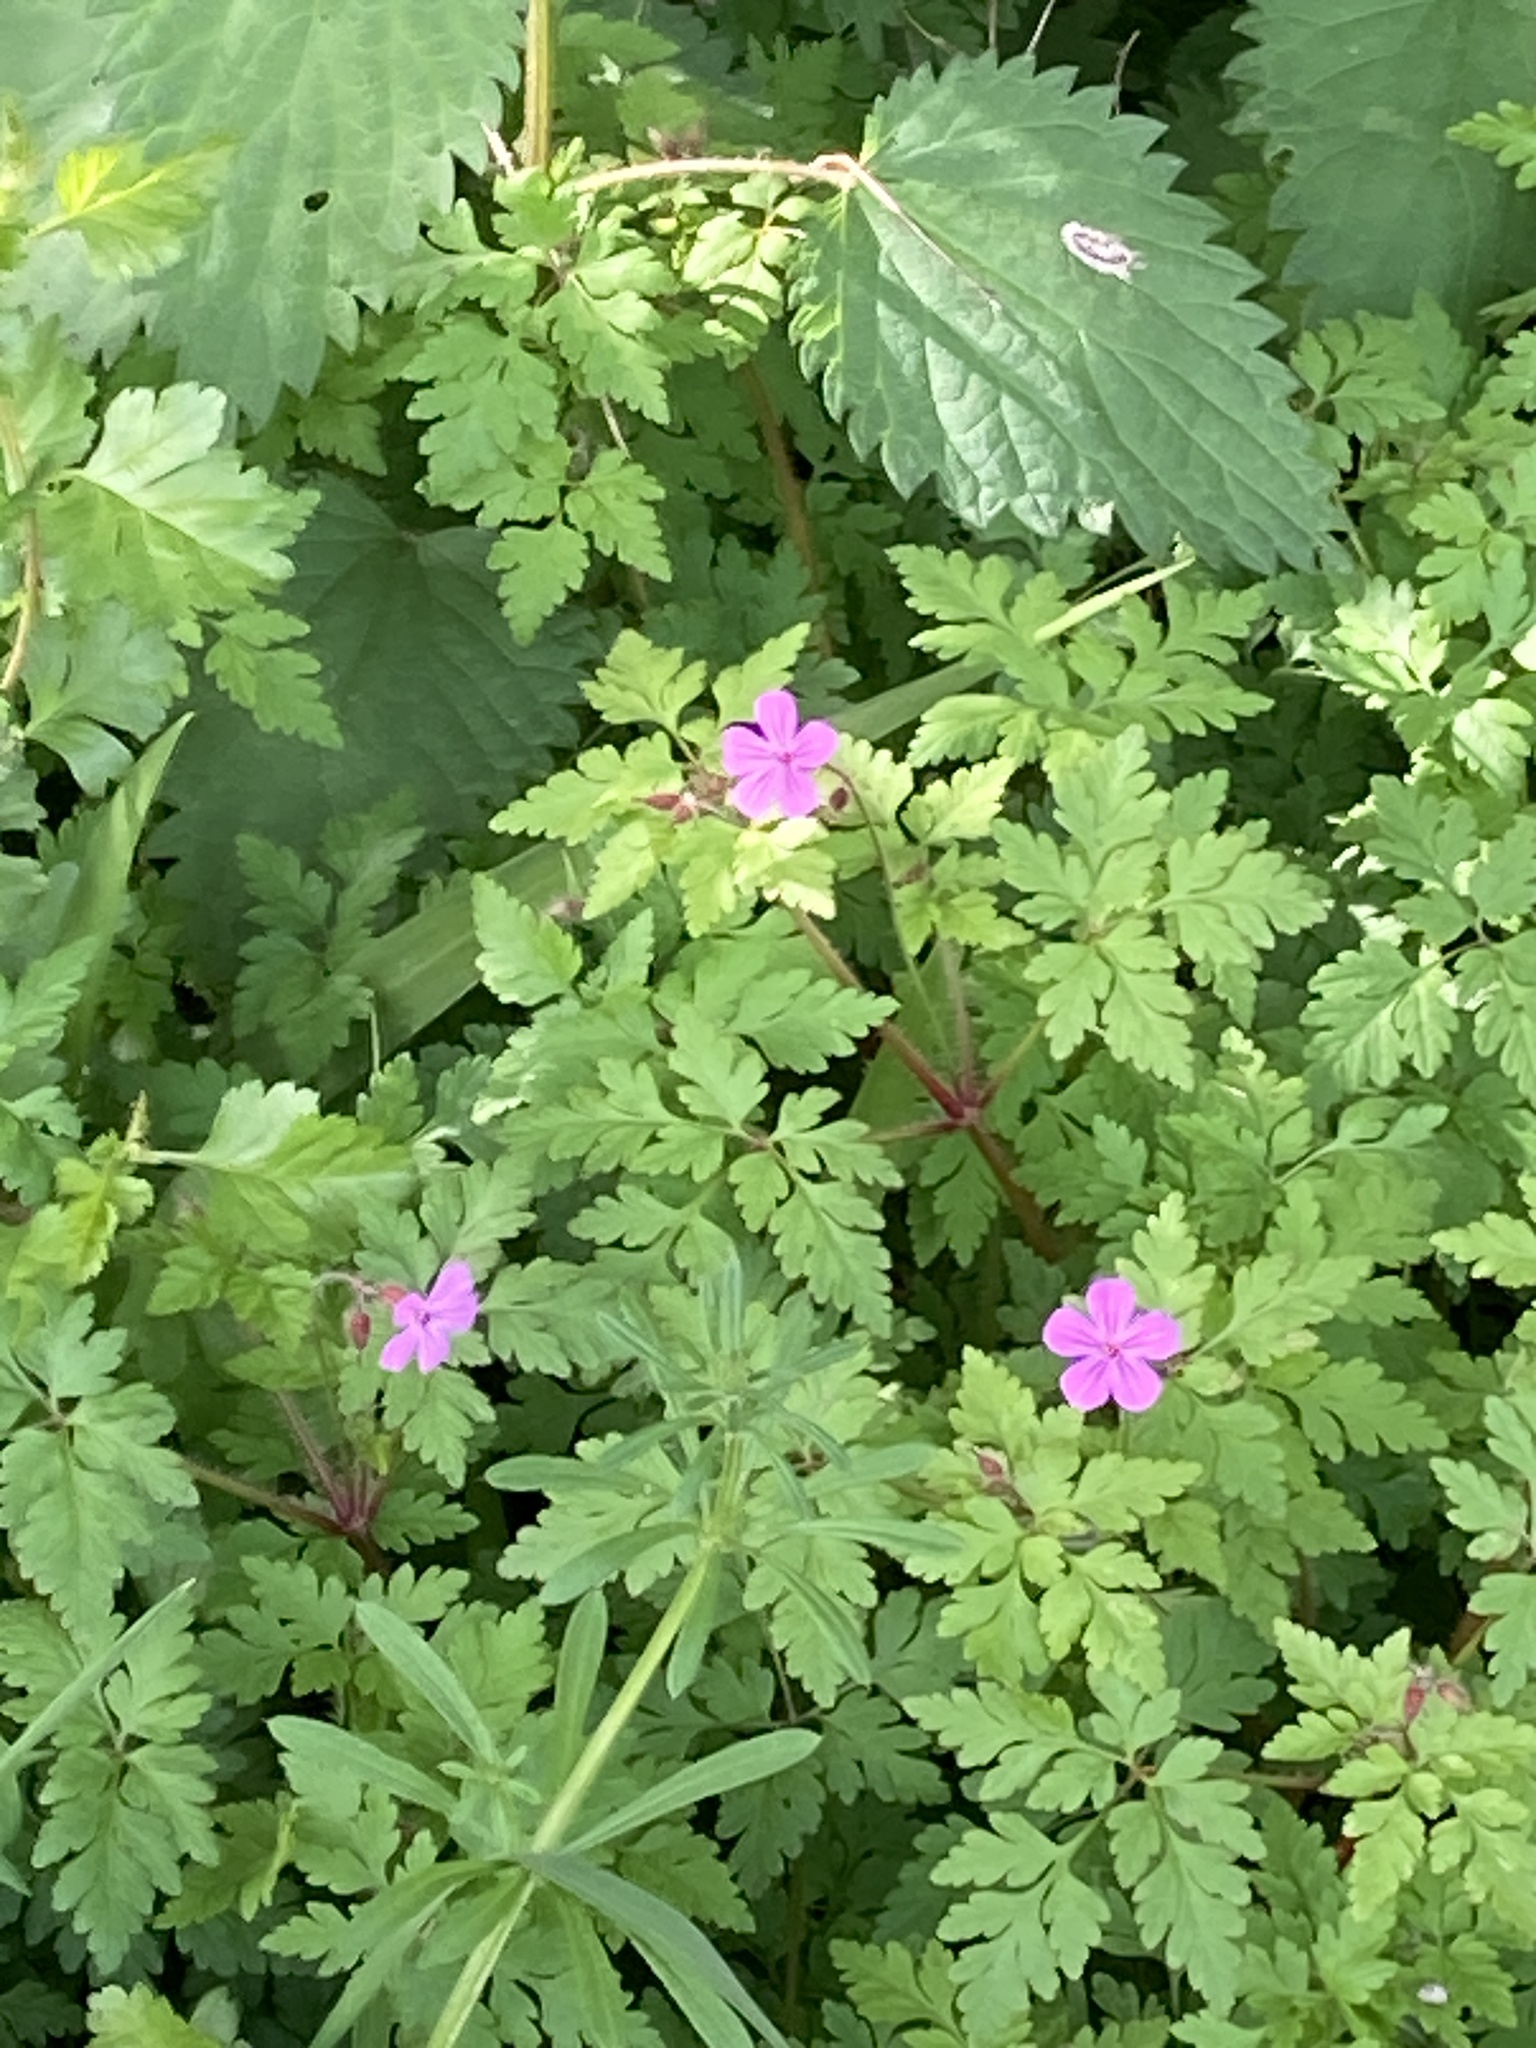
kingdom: Plantae
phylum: Tracheophyta
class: Magnoliopsida
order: Geraniales
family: Geraniaceae
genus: Geranium
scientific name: Geranium robertianum
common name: Herb-robert
